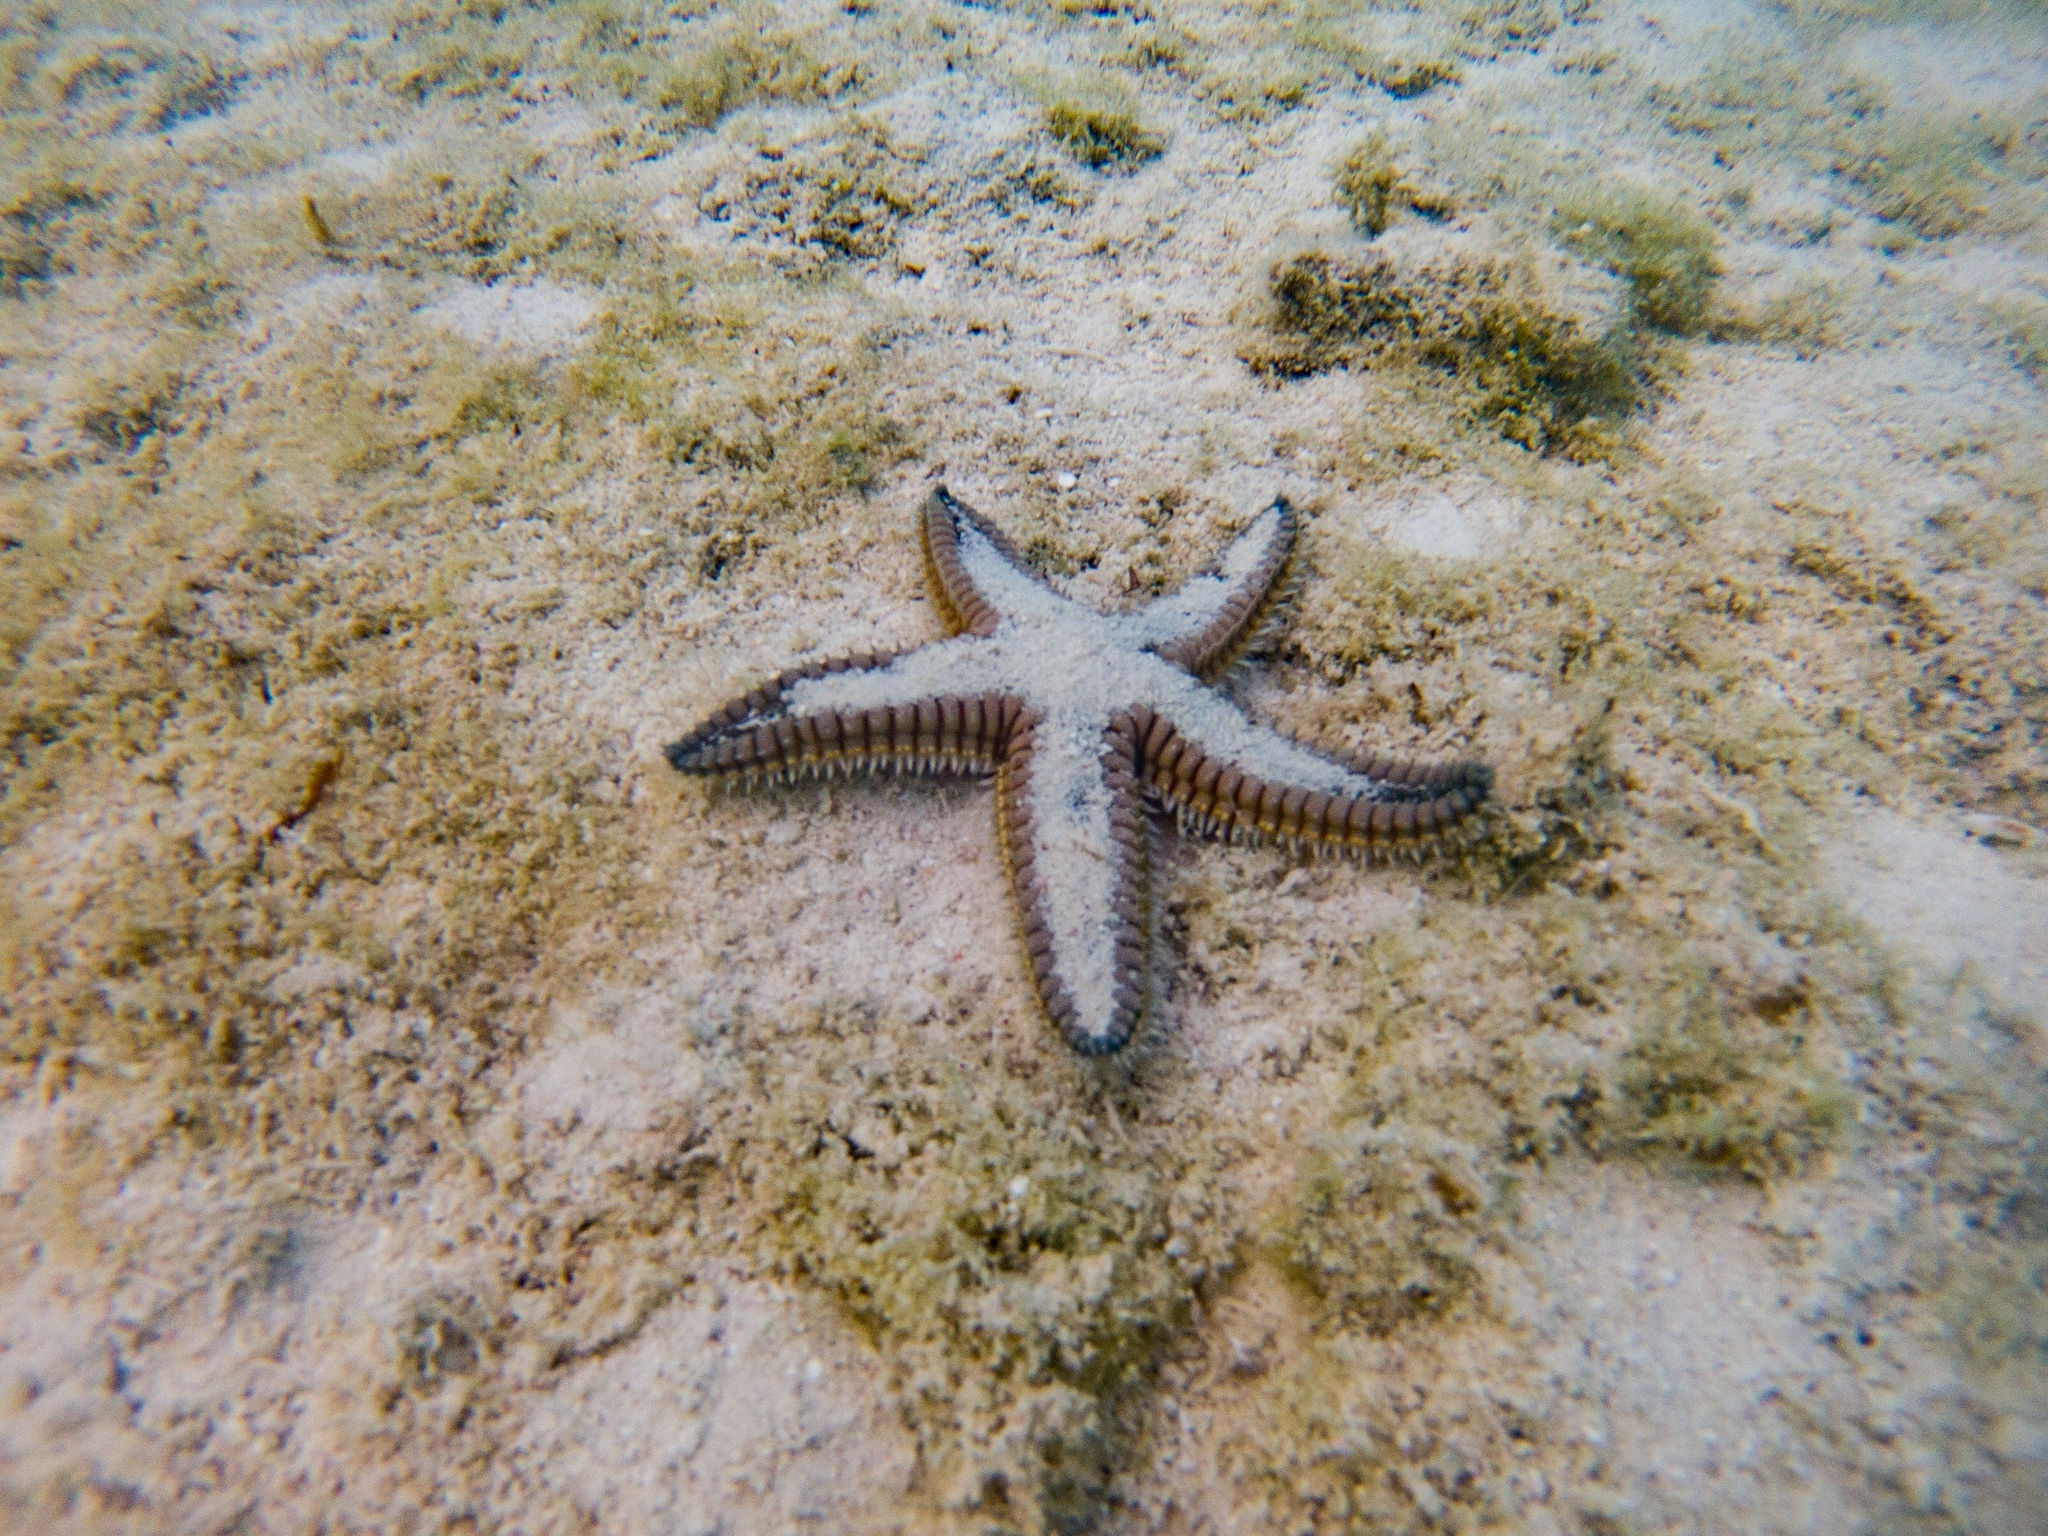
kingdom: Animalia
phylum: Echinodermata
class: Asteroidea
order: Paxillosida
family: Astropectinidae
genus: Astropecten
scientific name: Astropecten duplicatus
